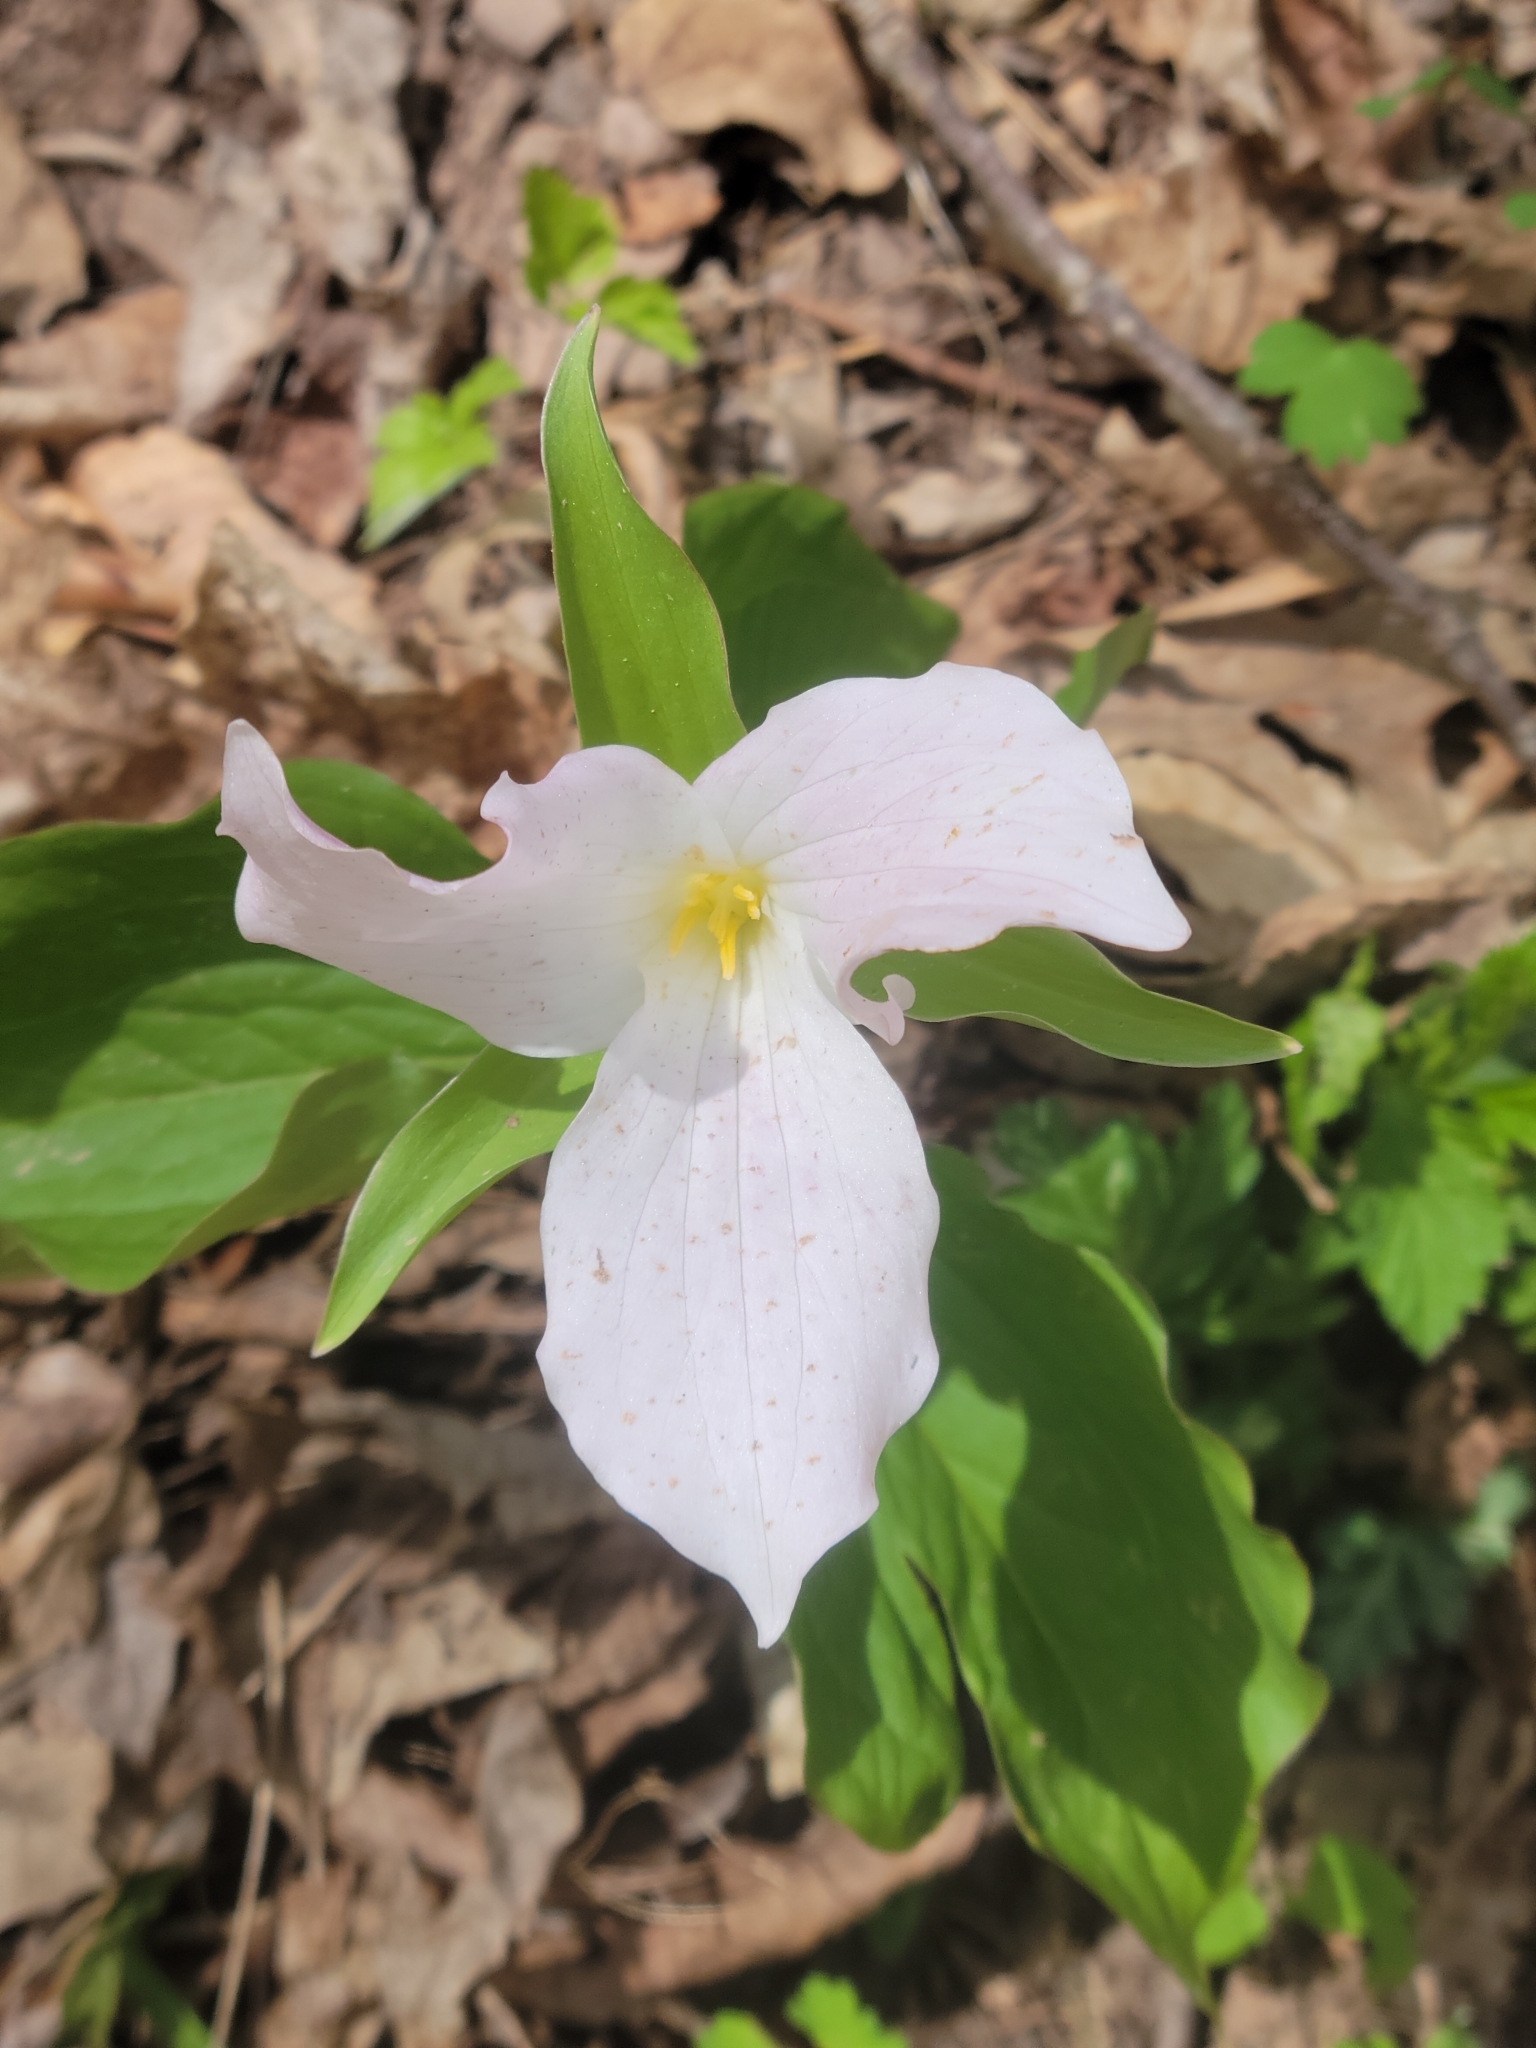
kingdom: Plantae
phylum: Tracheophyta
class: Liliopsida
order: Liliales
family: Melanthiaceae
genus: Trillium
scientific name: Trillium grandiflorum
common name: Great white trillium
